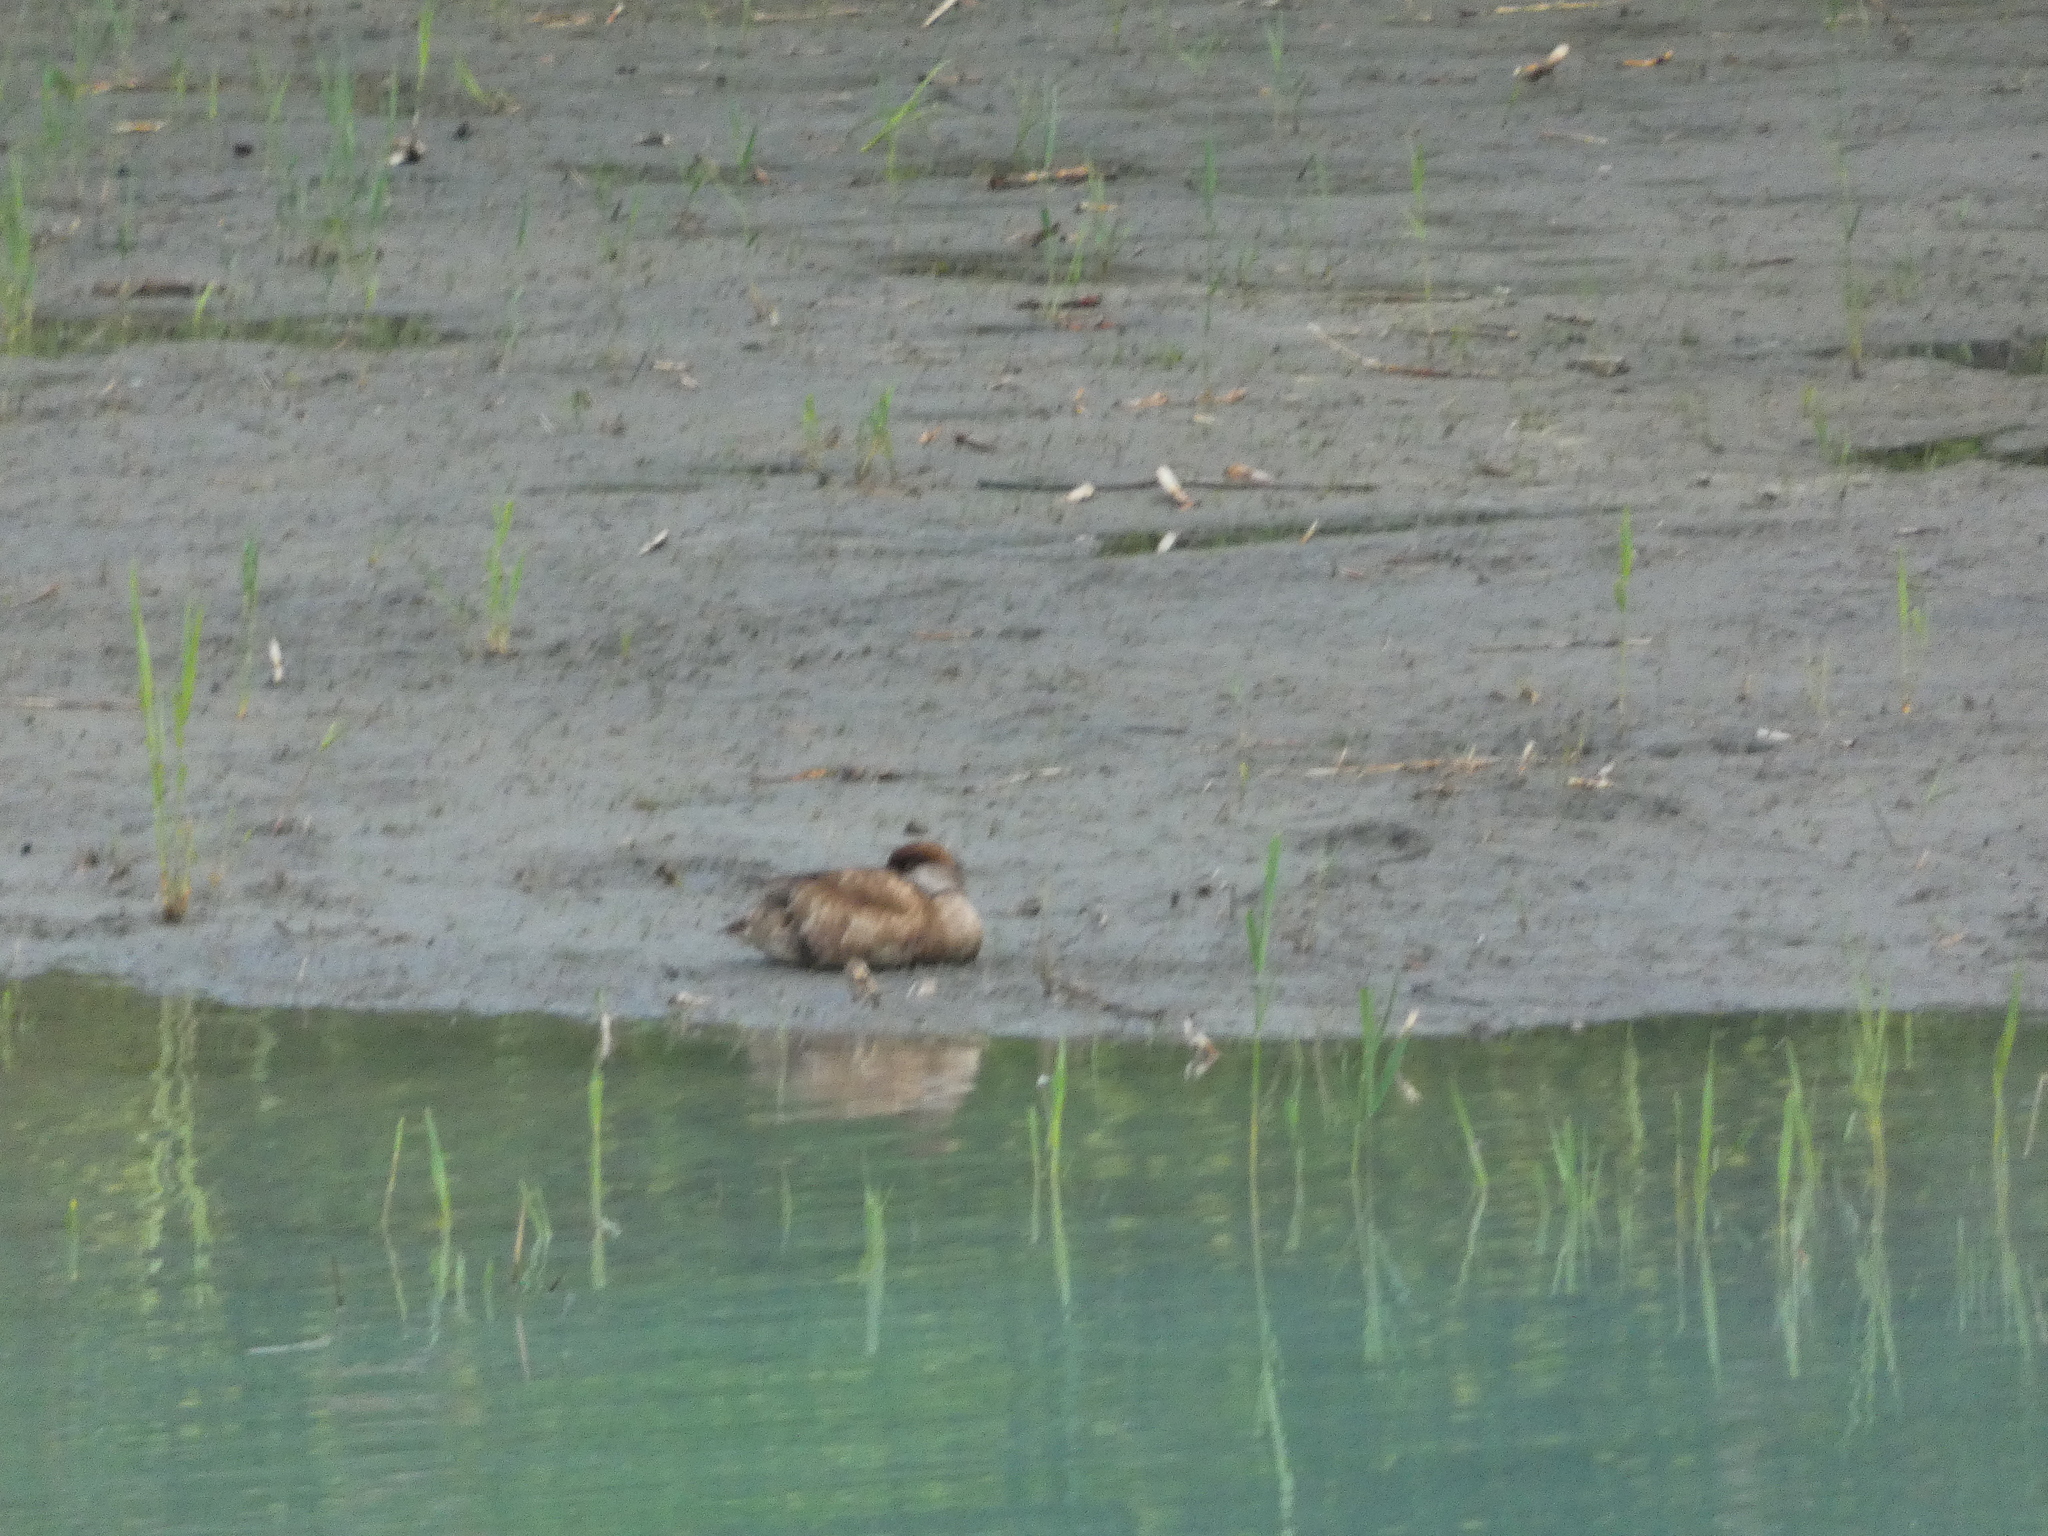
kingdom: Animalia
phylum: Chordata
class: Aves
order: Anseriformes
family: Anatidae
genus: Netta
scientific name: Netta rufina
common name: Red-crested pochard
